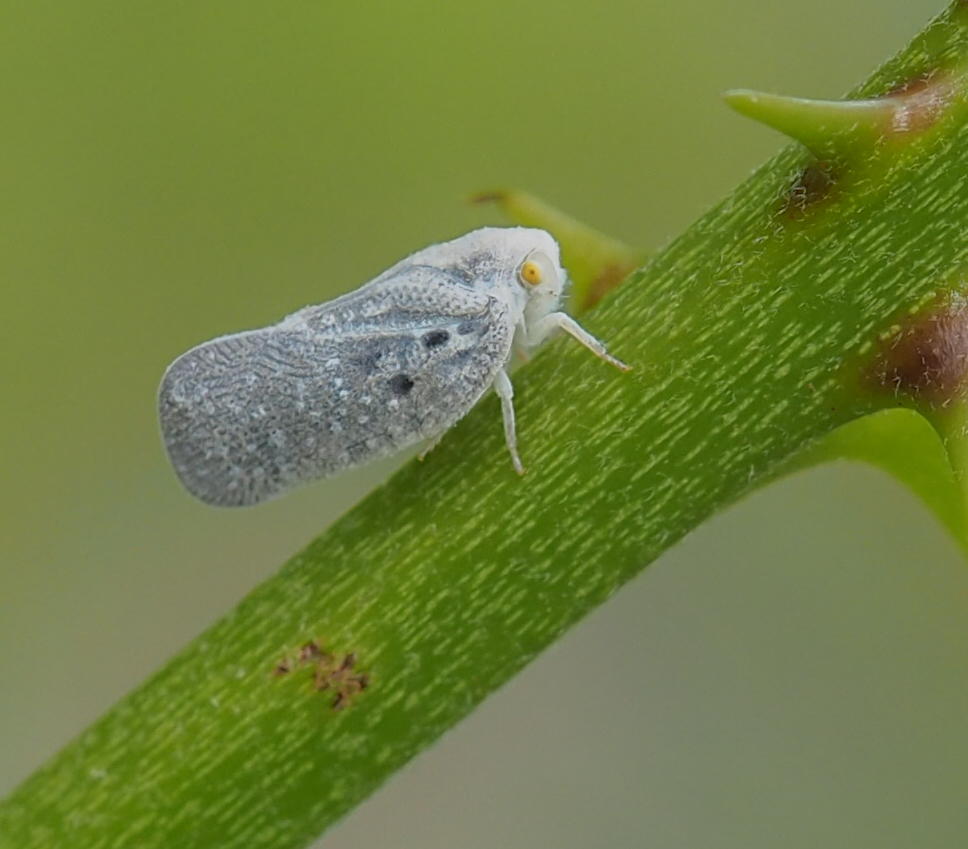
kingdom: Animalia
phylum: Arthropoda
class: Insecta
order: Hemiptera
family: Flatidae
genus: Metcalfa
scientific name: Metcalfa pruinosa
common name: Citrus flatid planthopper
